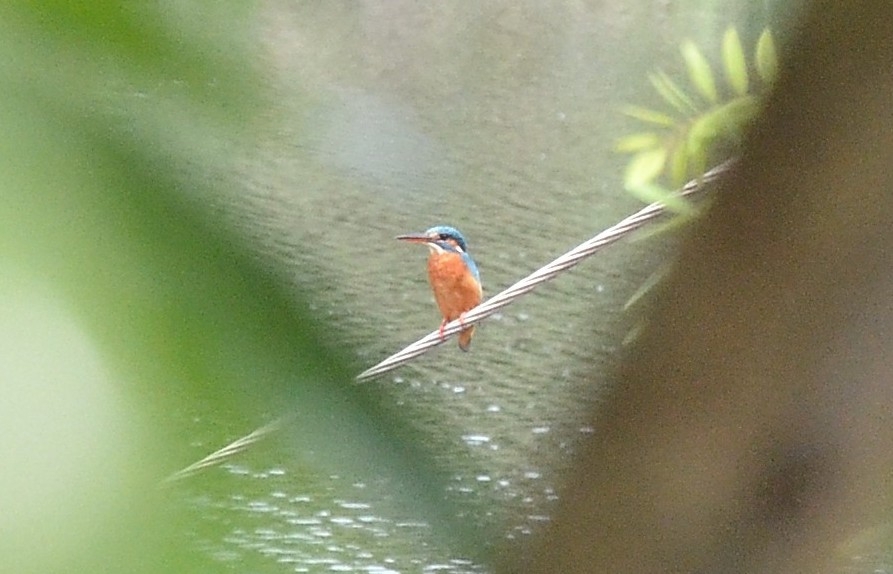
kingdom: Animalia
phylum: Chordata
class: Aves
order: Coraciiformes
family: Alcedinidae
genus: Alcedo
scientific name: Alcedo atthis
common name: Common kingfisher
